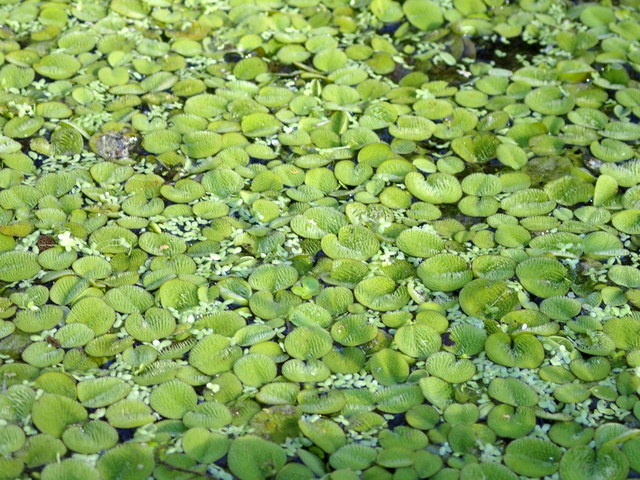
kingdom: Plantae
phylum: Tracheophyta
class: Polypodiopsida
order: Salviniales
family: Salviniaceae
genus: Salvinia
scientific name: Salvinia minima
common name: Water spangles
